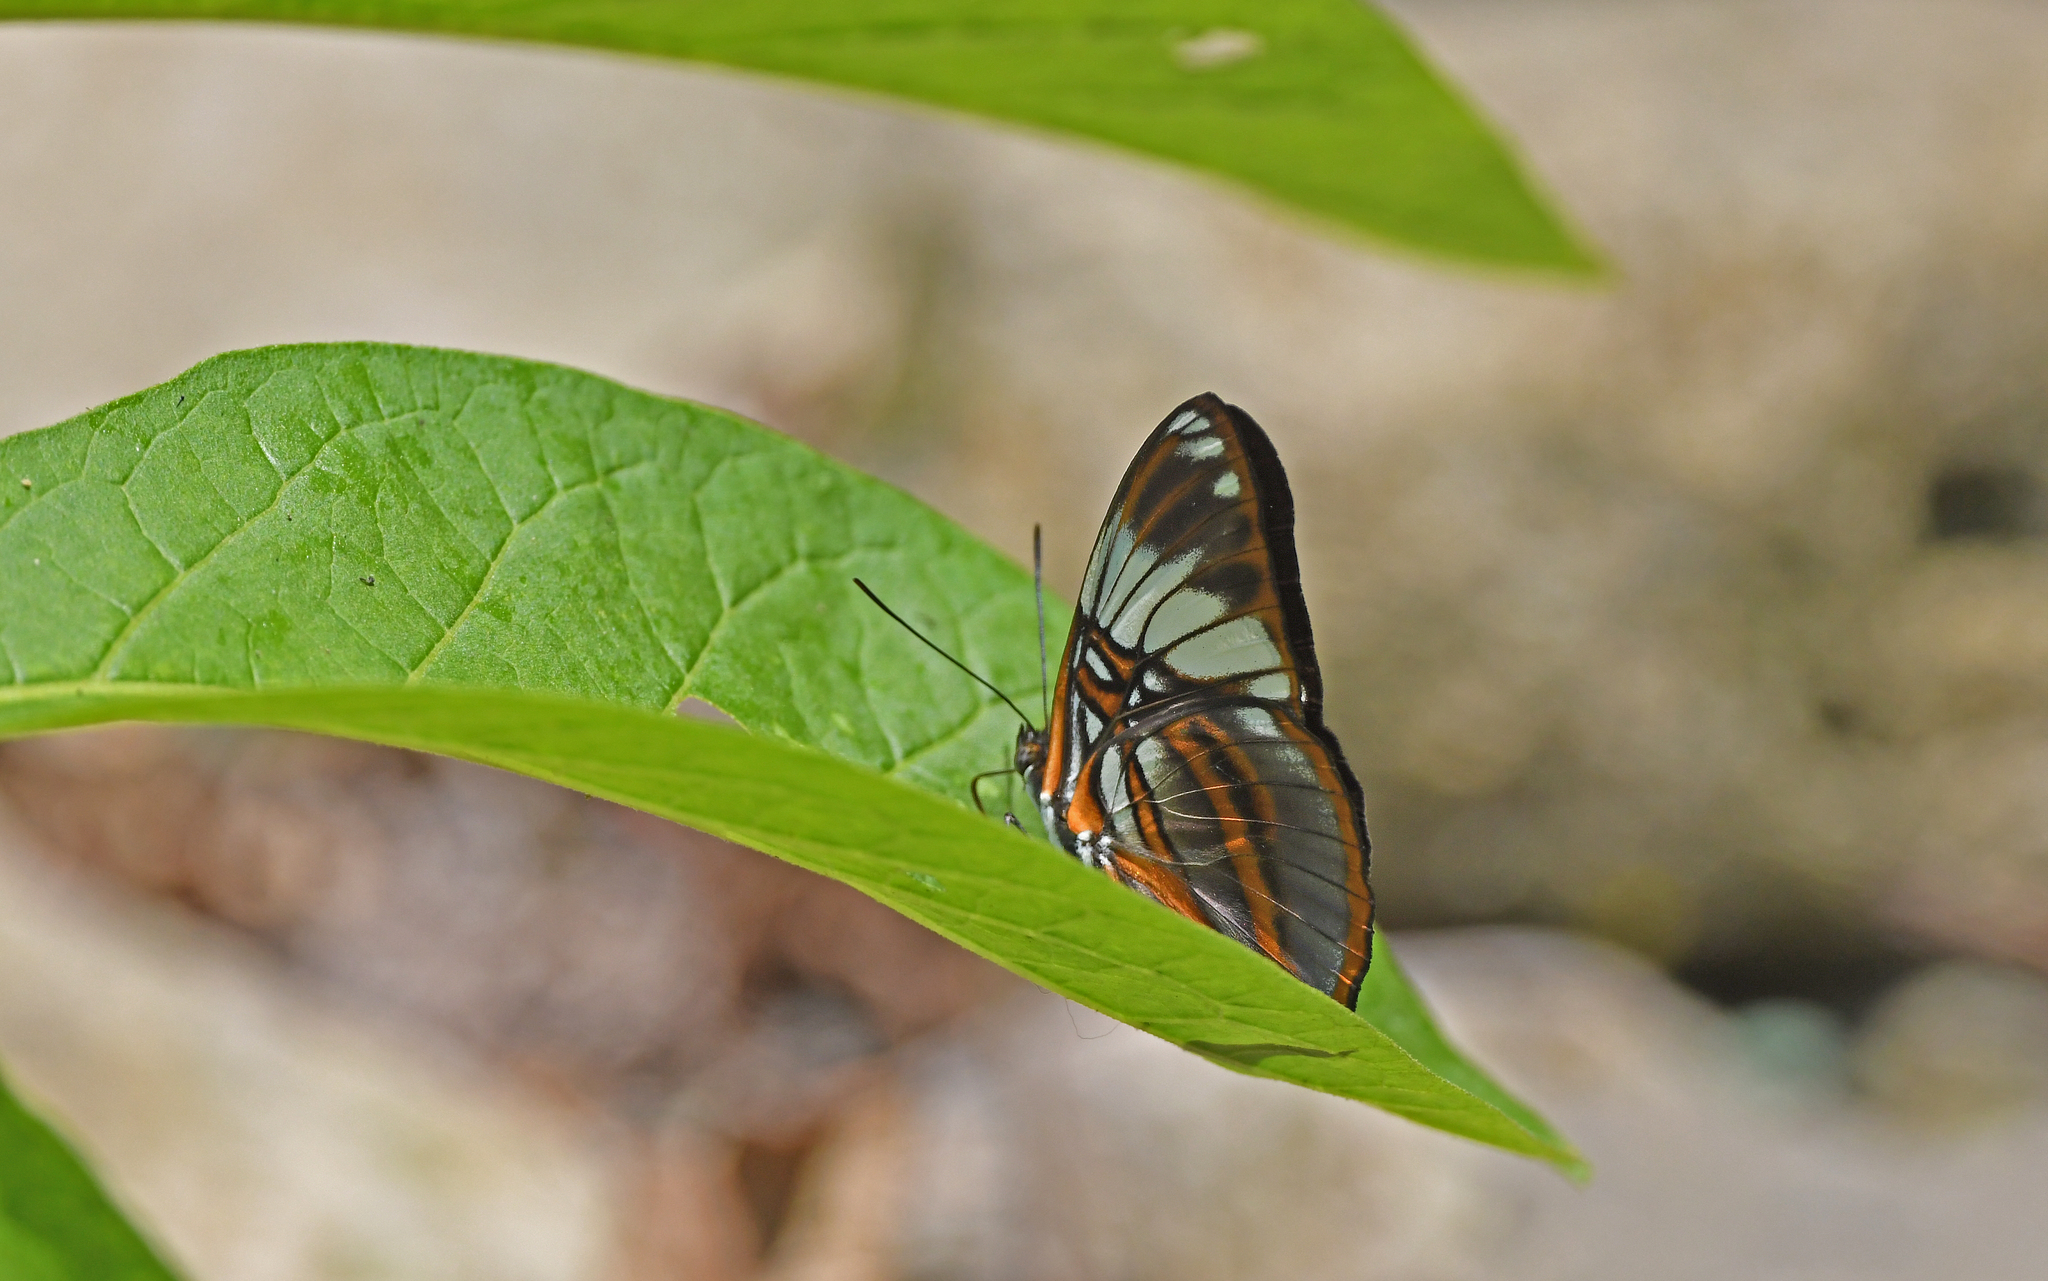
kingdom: Animalia
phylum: Arthropoda
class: Insecta
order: Lepidoptera
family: Nymphalidae
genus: Limenitis
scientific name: Limenitis epione
